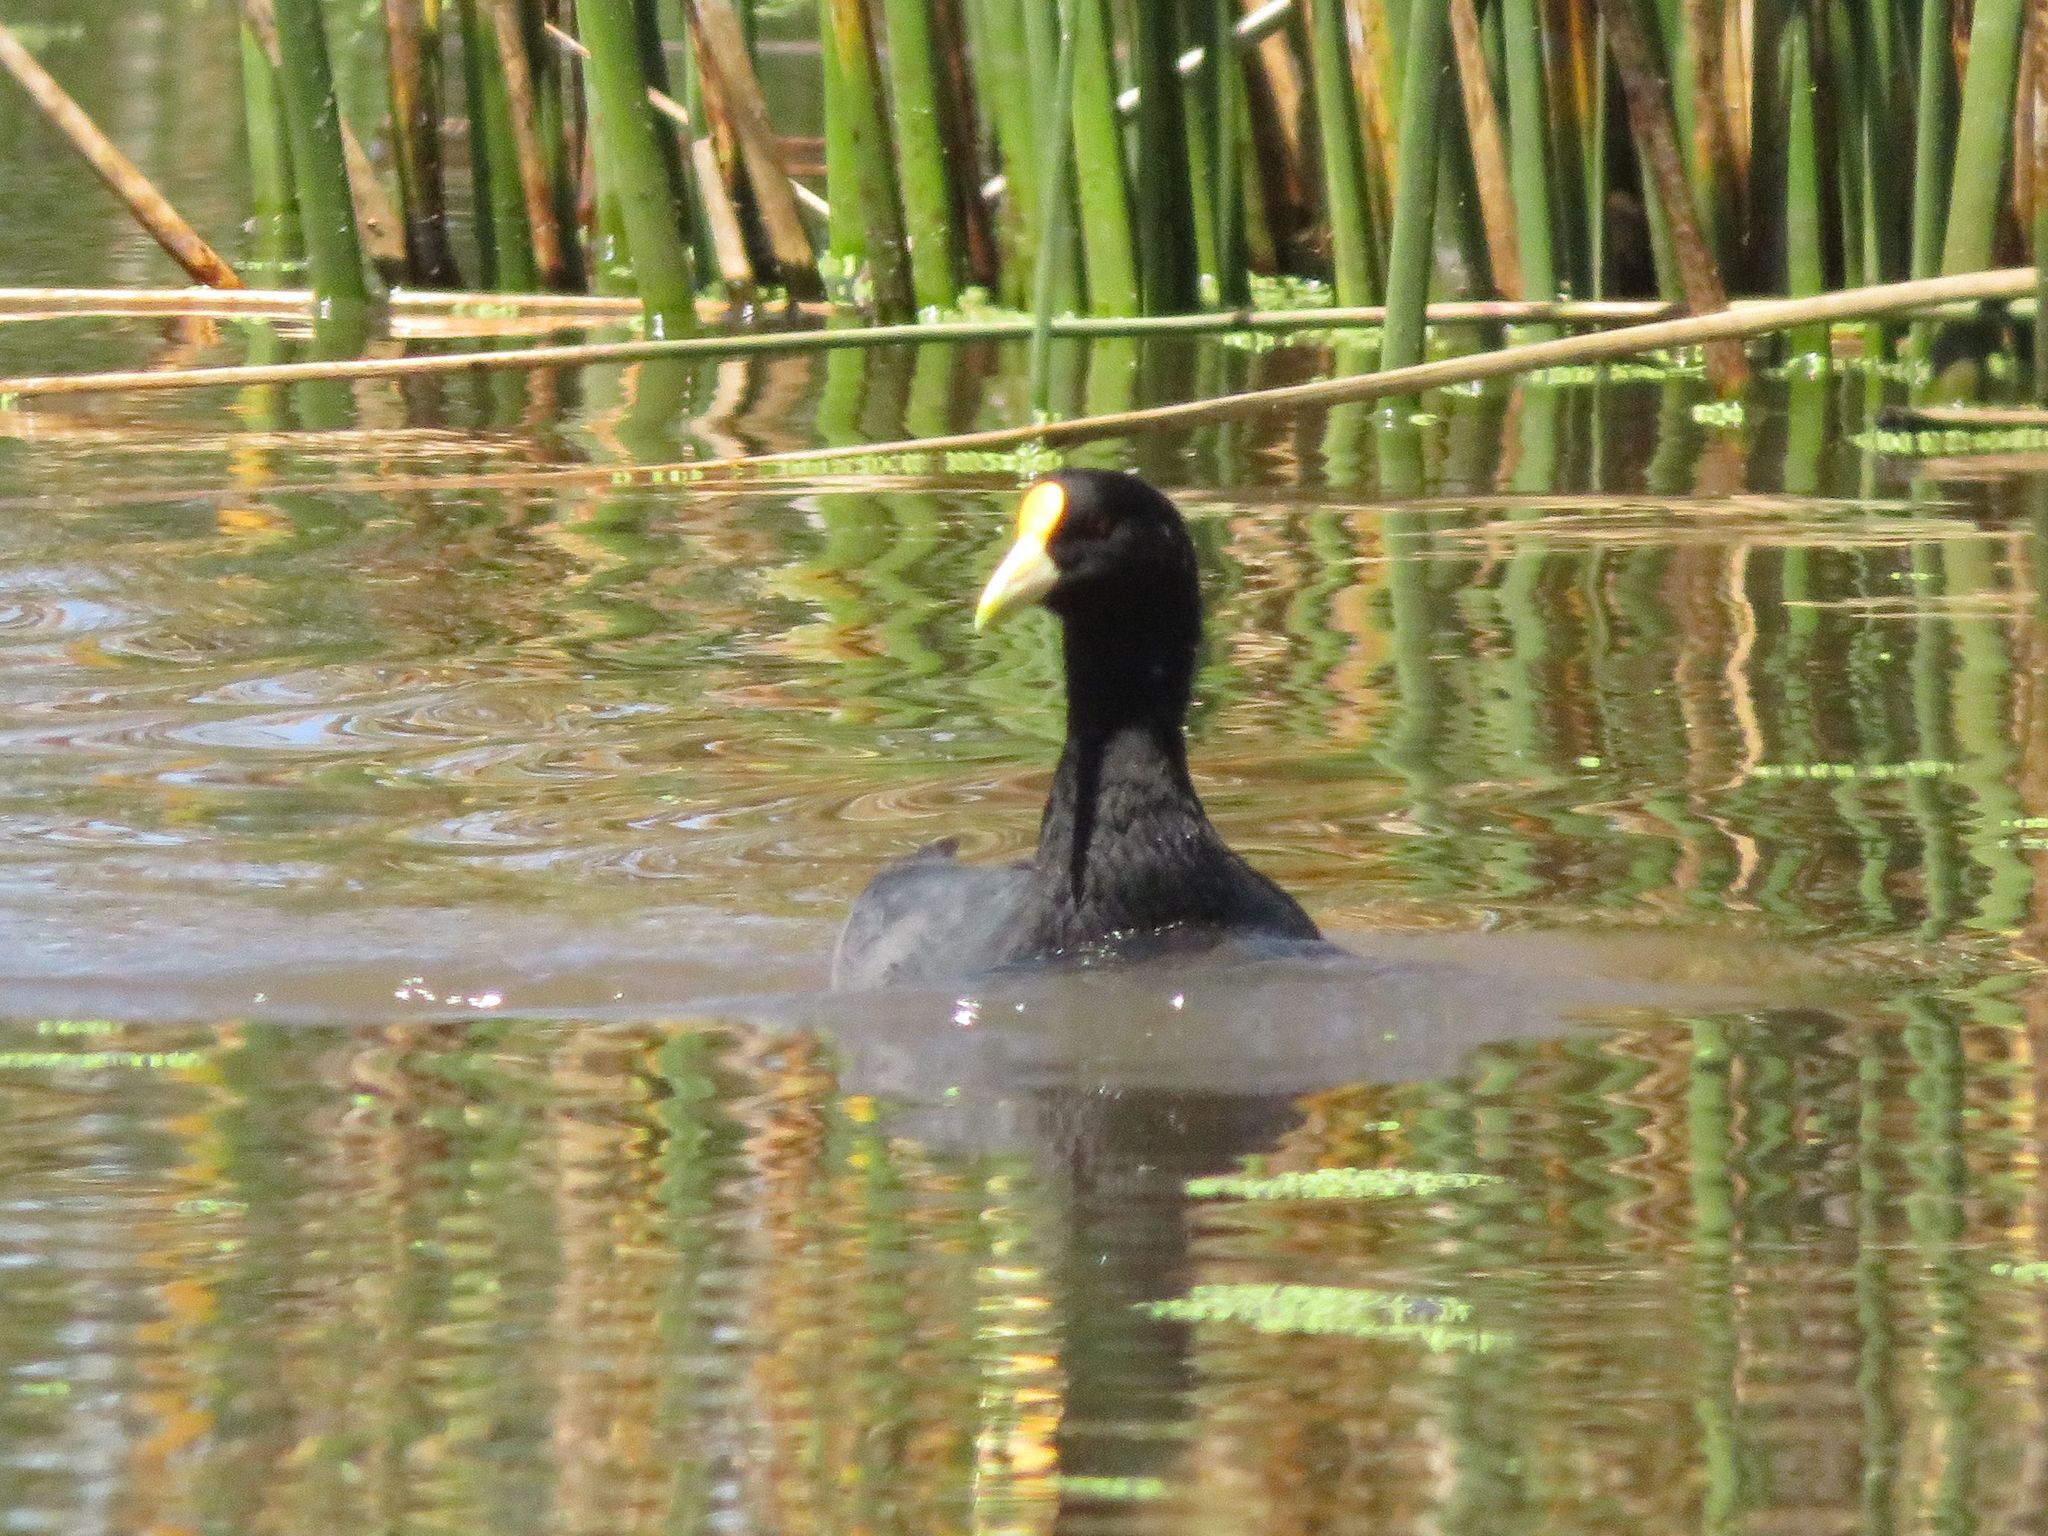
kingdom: Animalia
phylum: Chordata
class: Aves
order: Gruiformes
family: Rallidae
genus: Fulica
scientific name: Fulica leucoptera
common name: White-winged coot
